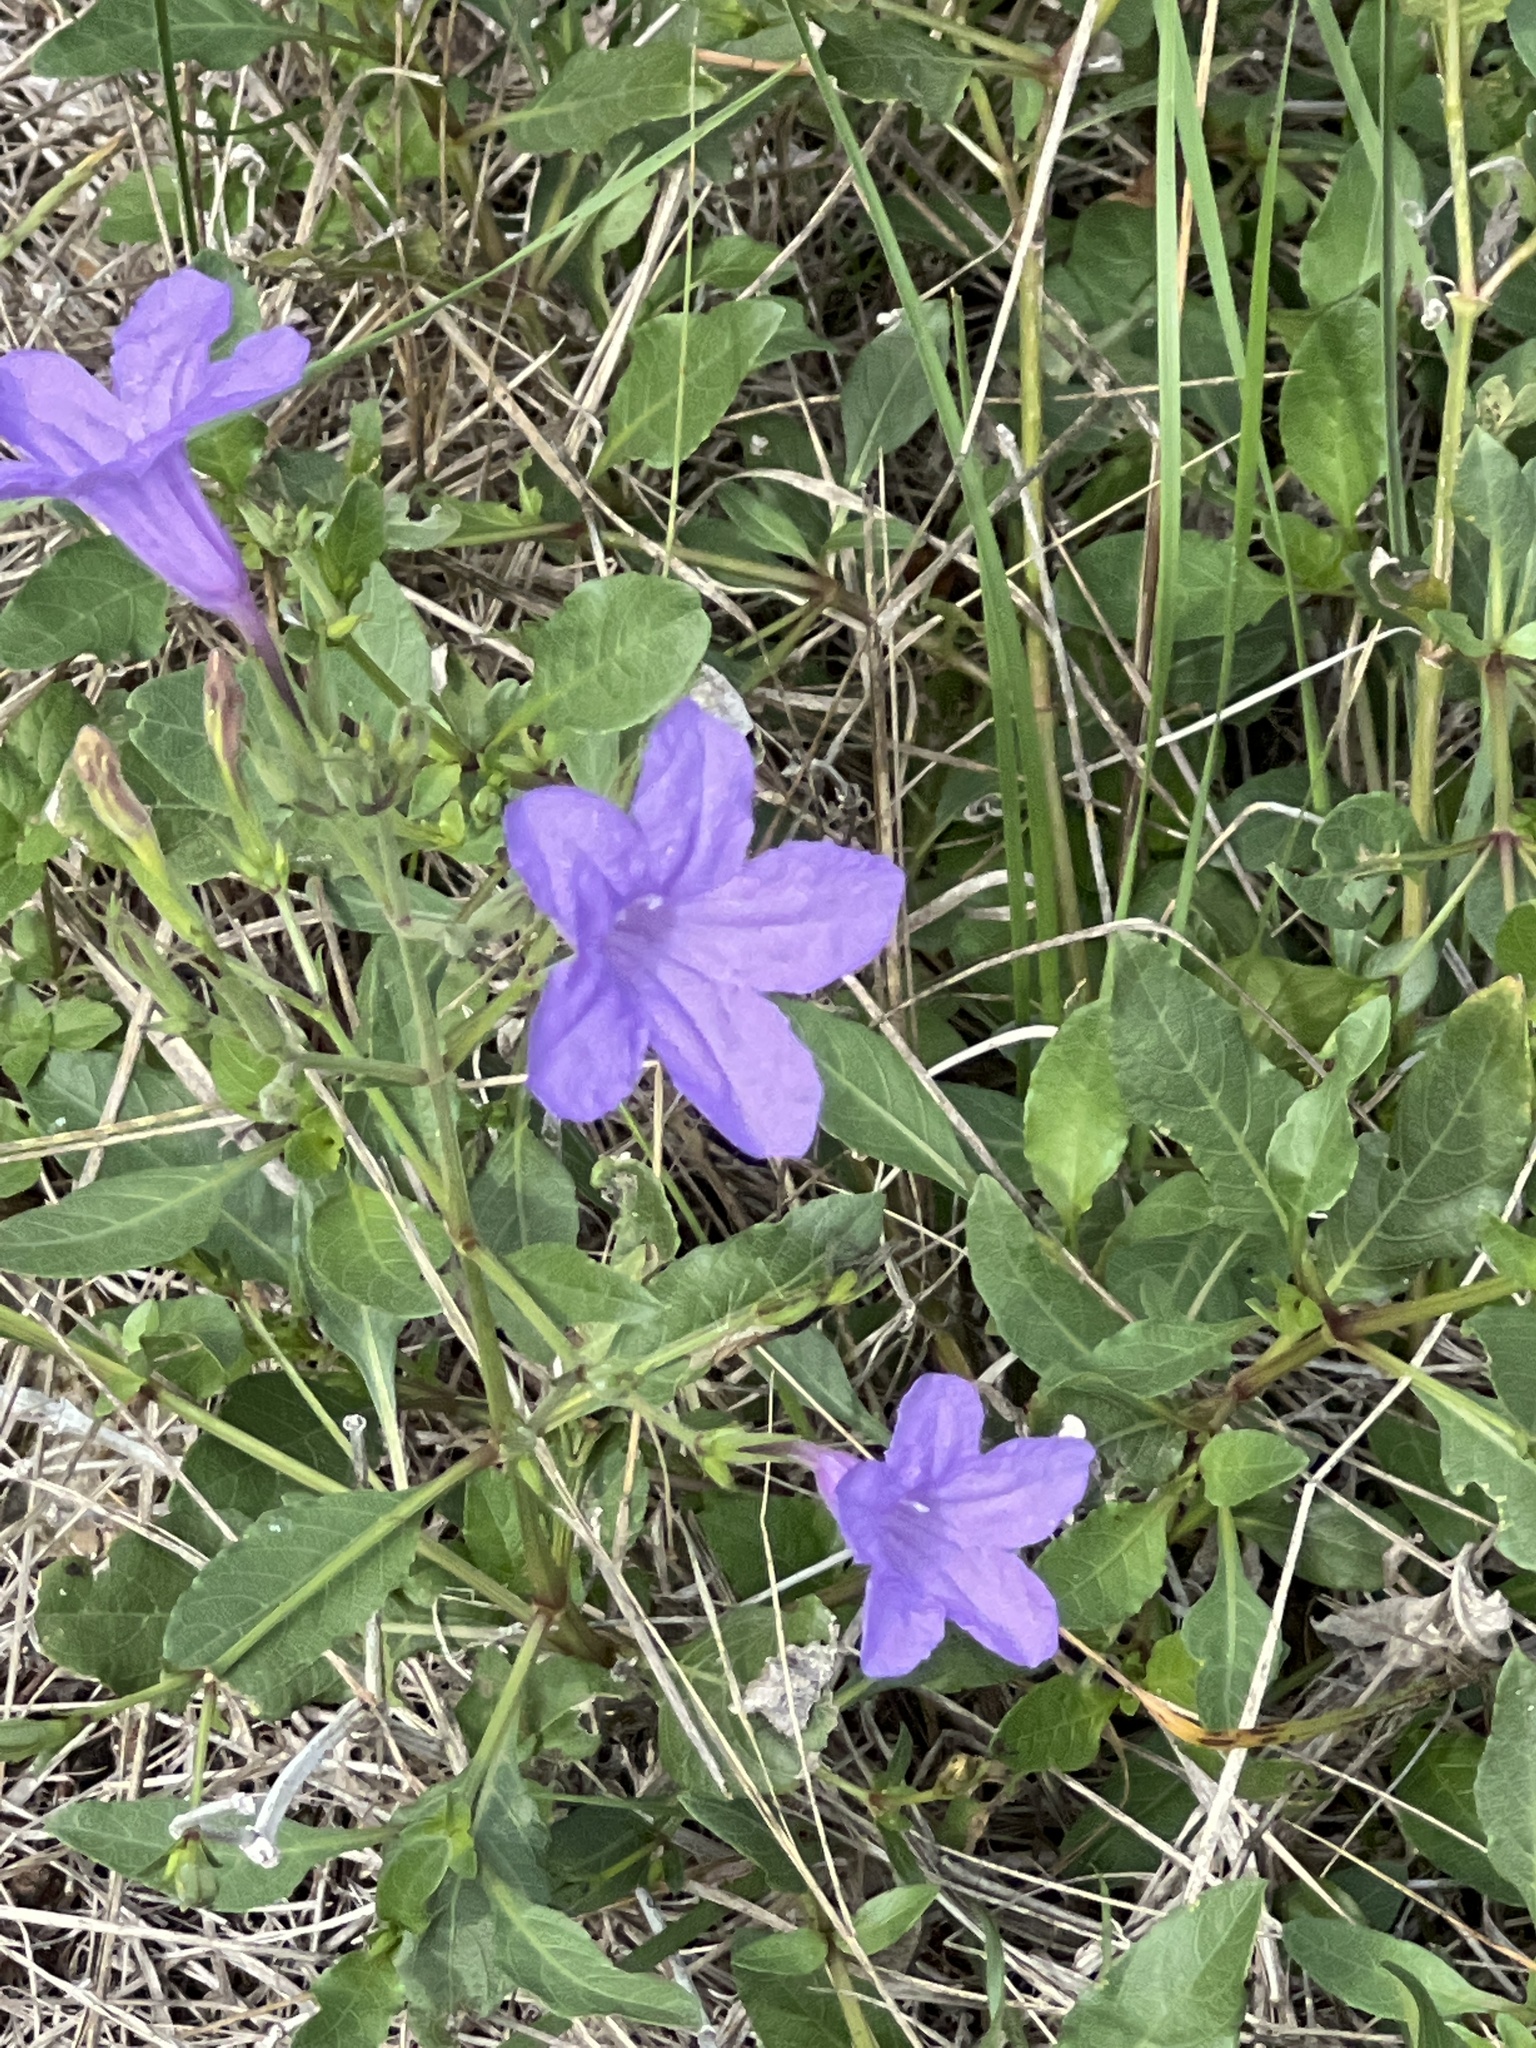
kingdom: Plantae
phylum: Tracheophyta
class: Magnoliopsida
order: Lamiales
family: Acanthaceae
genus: Ruellia
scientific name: Ruellia ciliatiflora
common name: Hairyflower wild petunia
